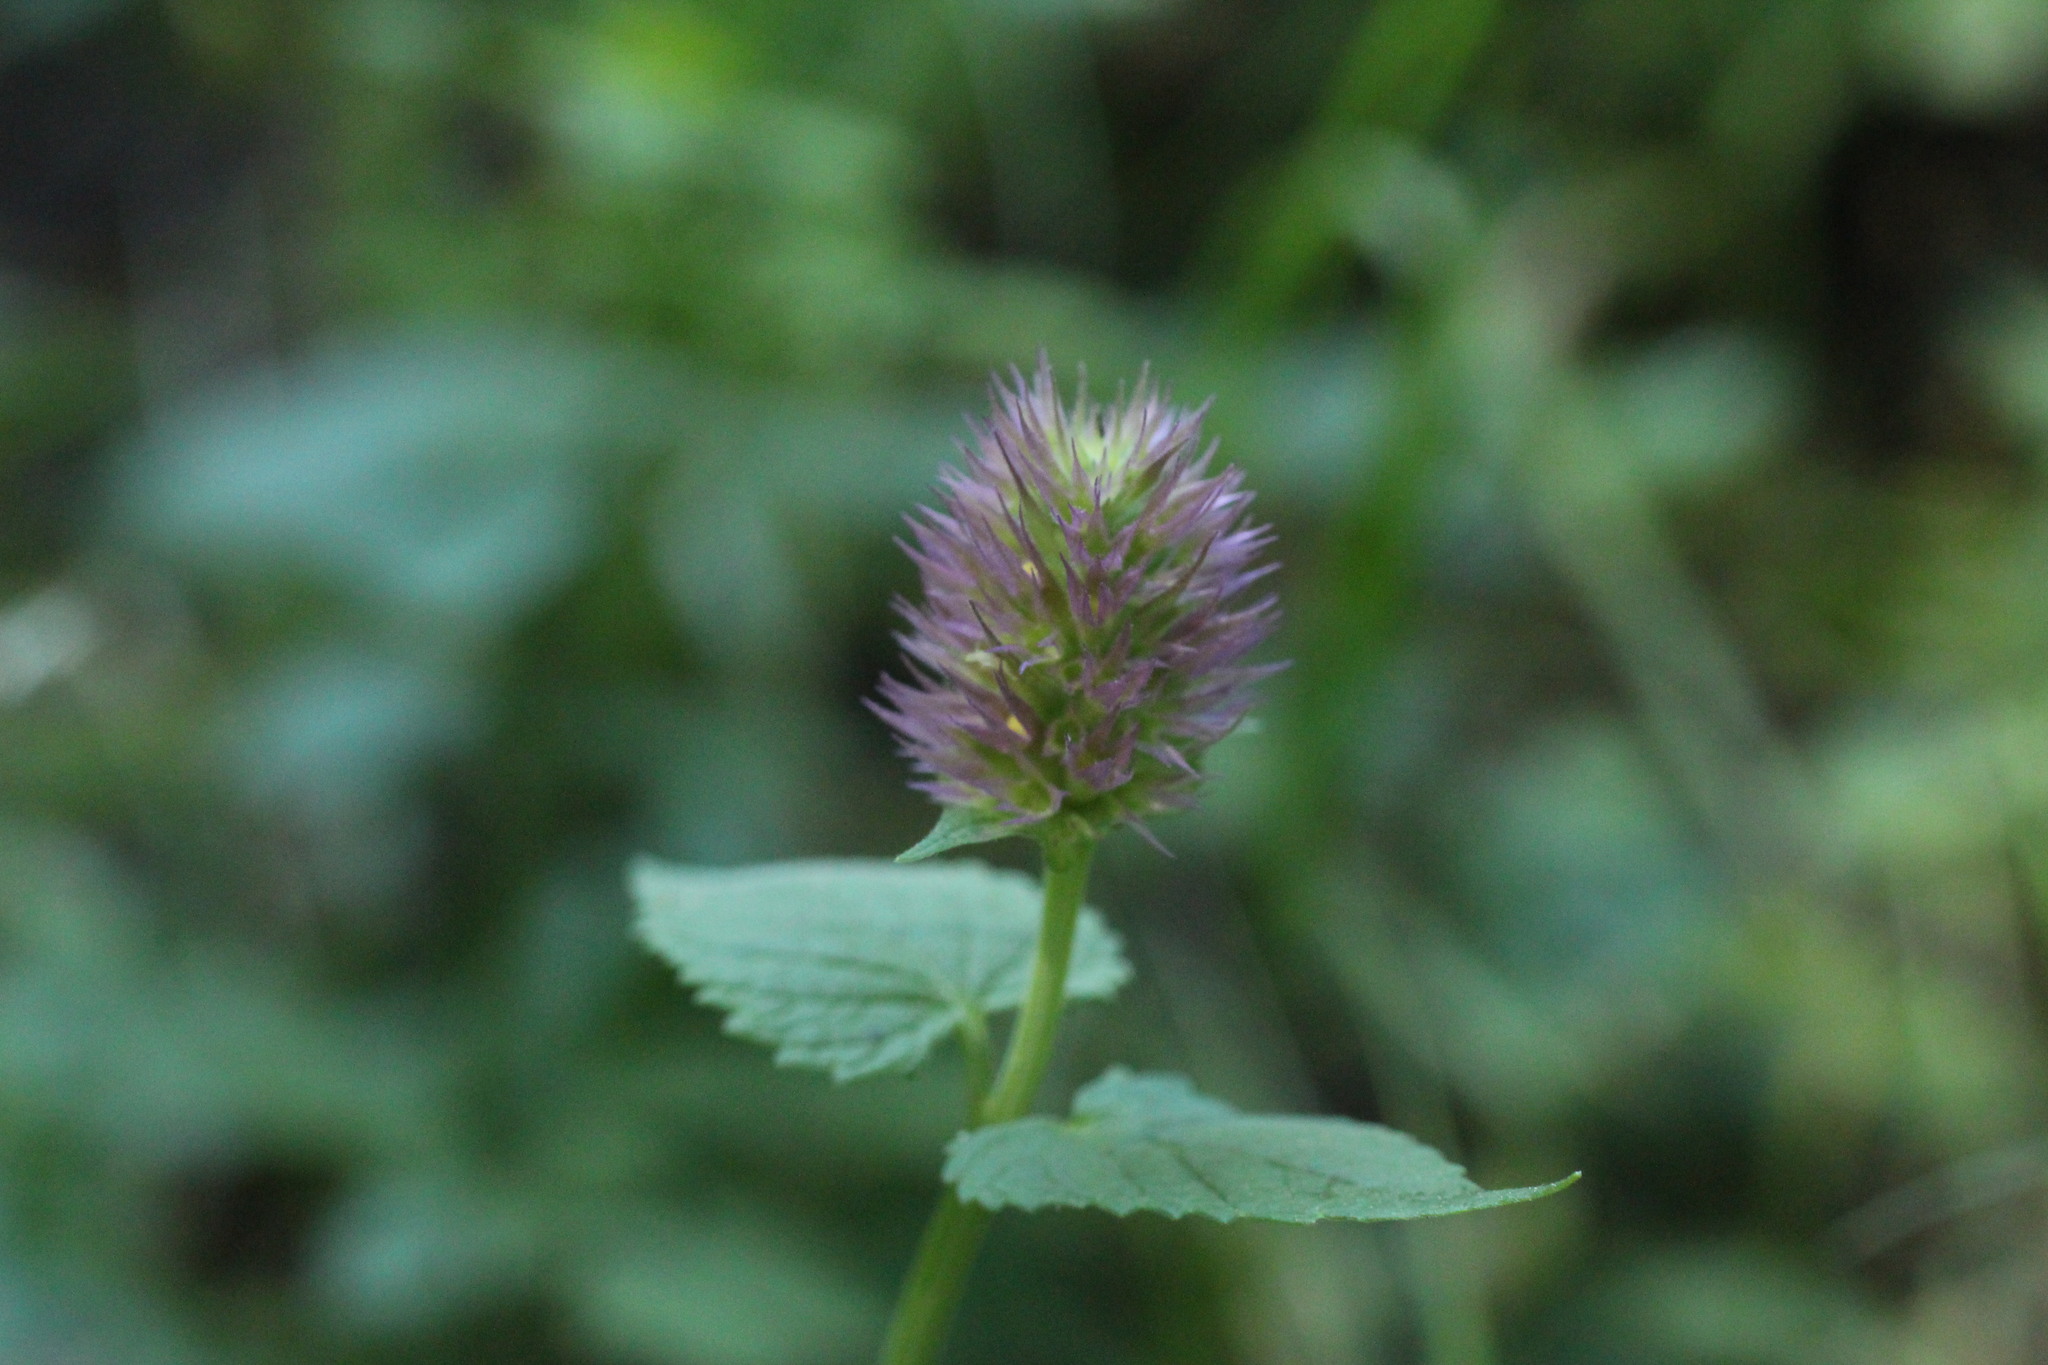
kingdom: Plantae
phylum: Tracheophyta
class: Magnoliopsida
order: Lamiales
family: Lamiaceae
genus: Agastache
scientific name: Agastache urticifolia
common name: Horsemint giant hyssop
